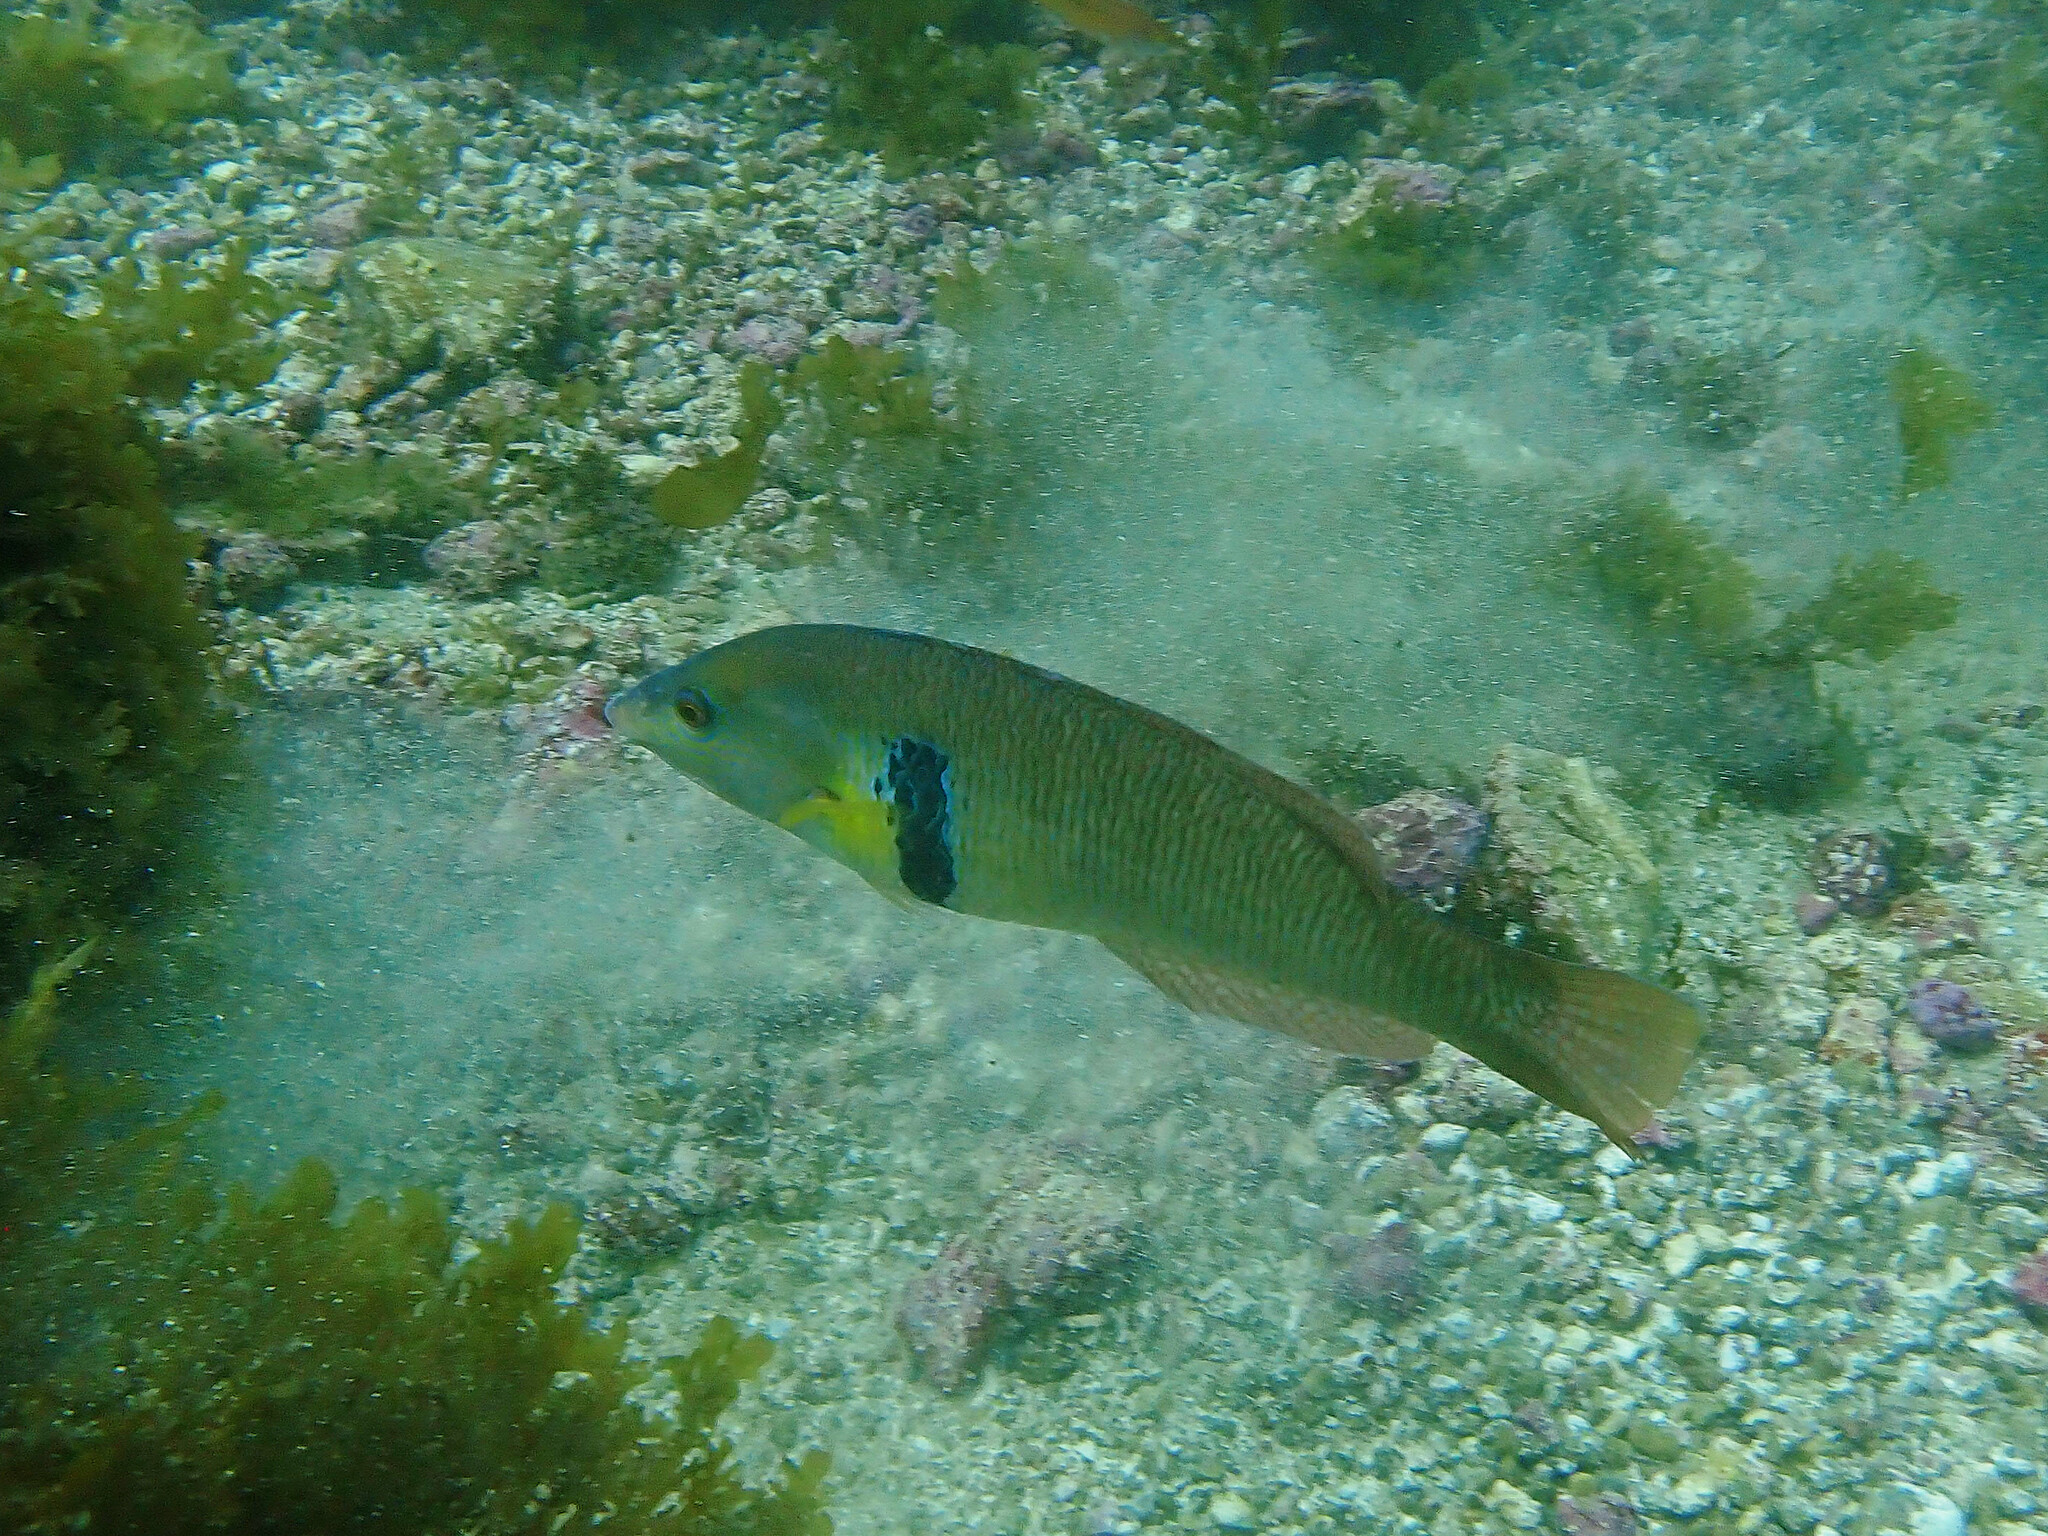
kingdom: Animalia
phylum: Chordata
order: Perciformes
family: Labridae
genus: Halichoeres
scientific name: Halichoeres semicinctus
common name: Rock wrasse
